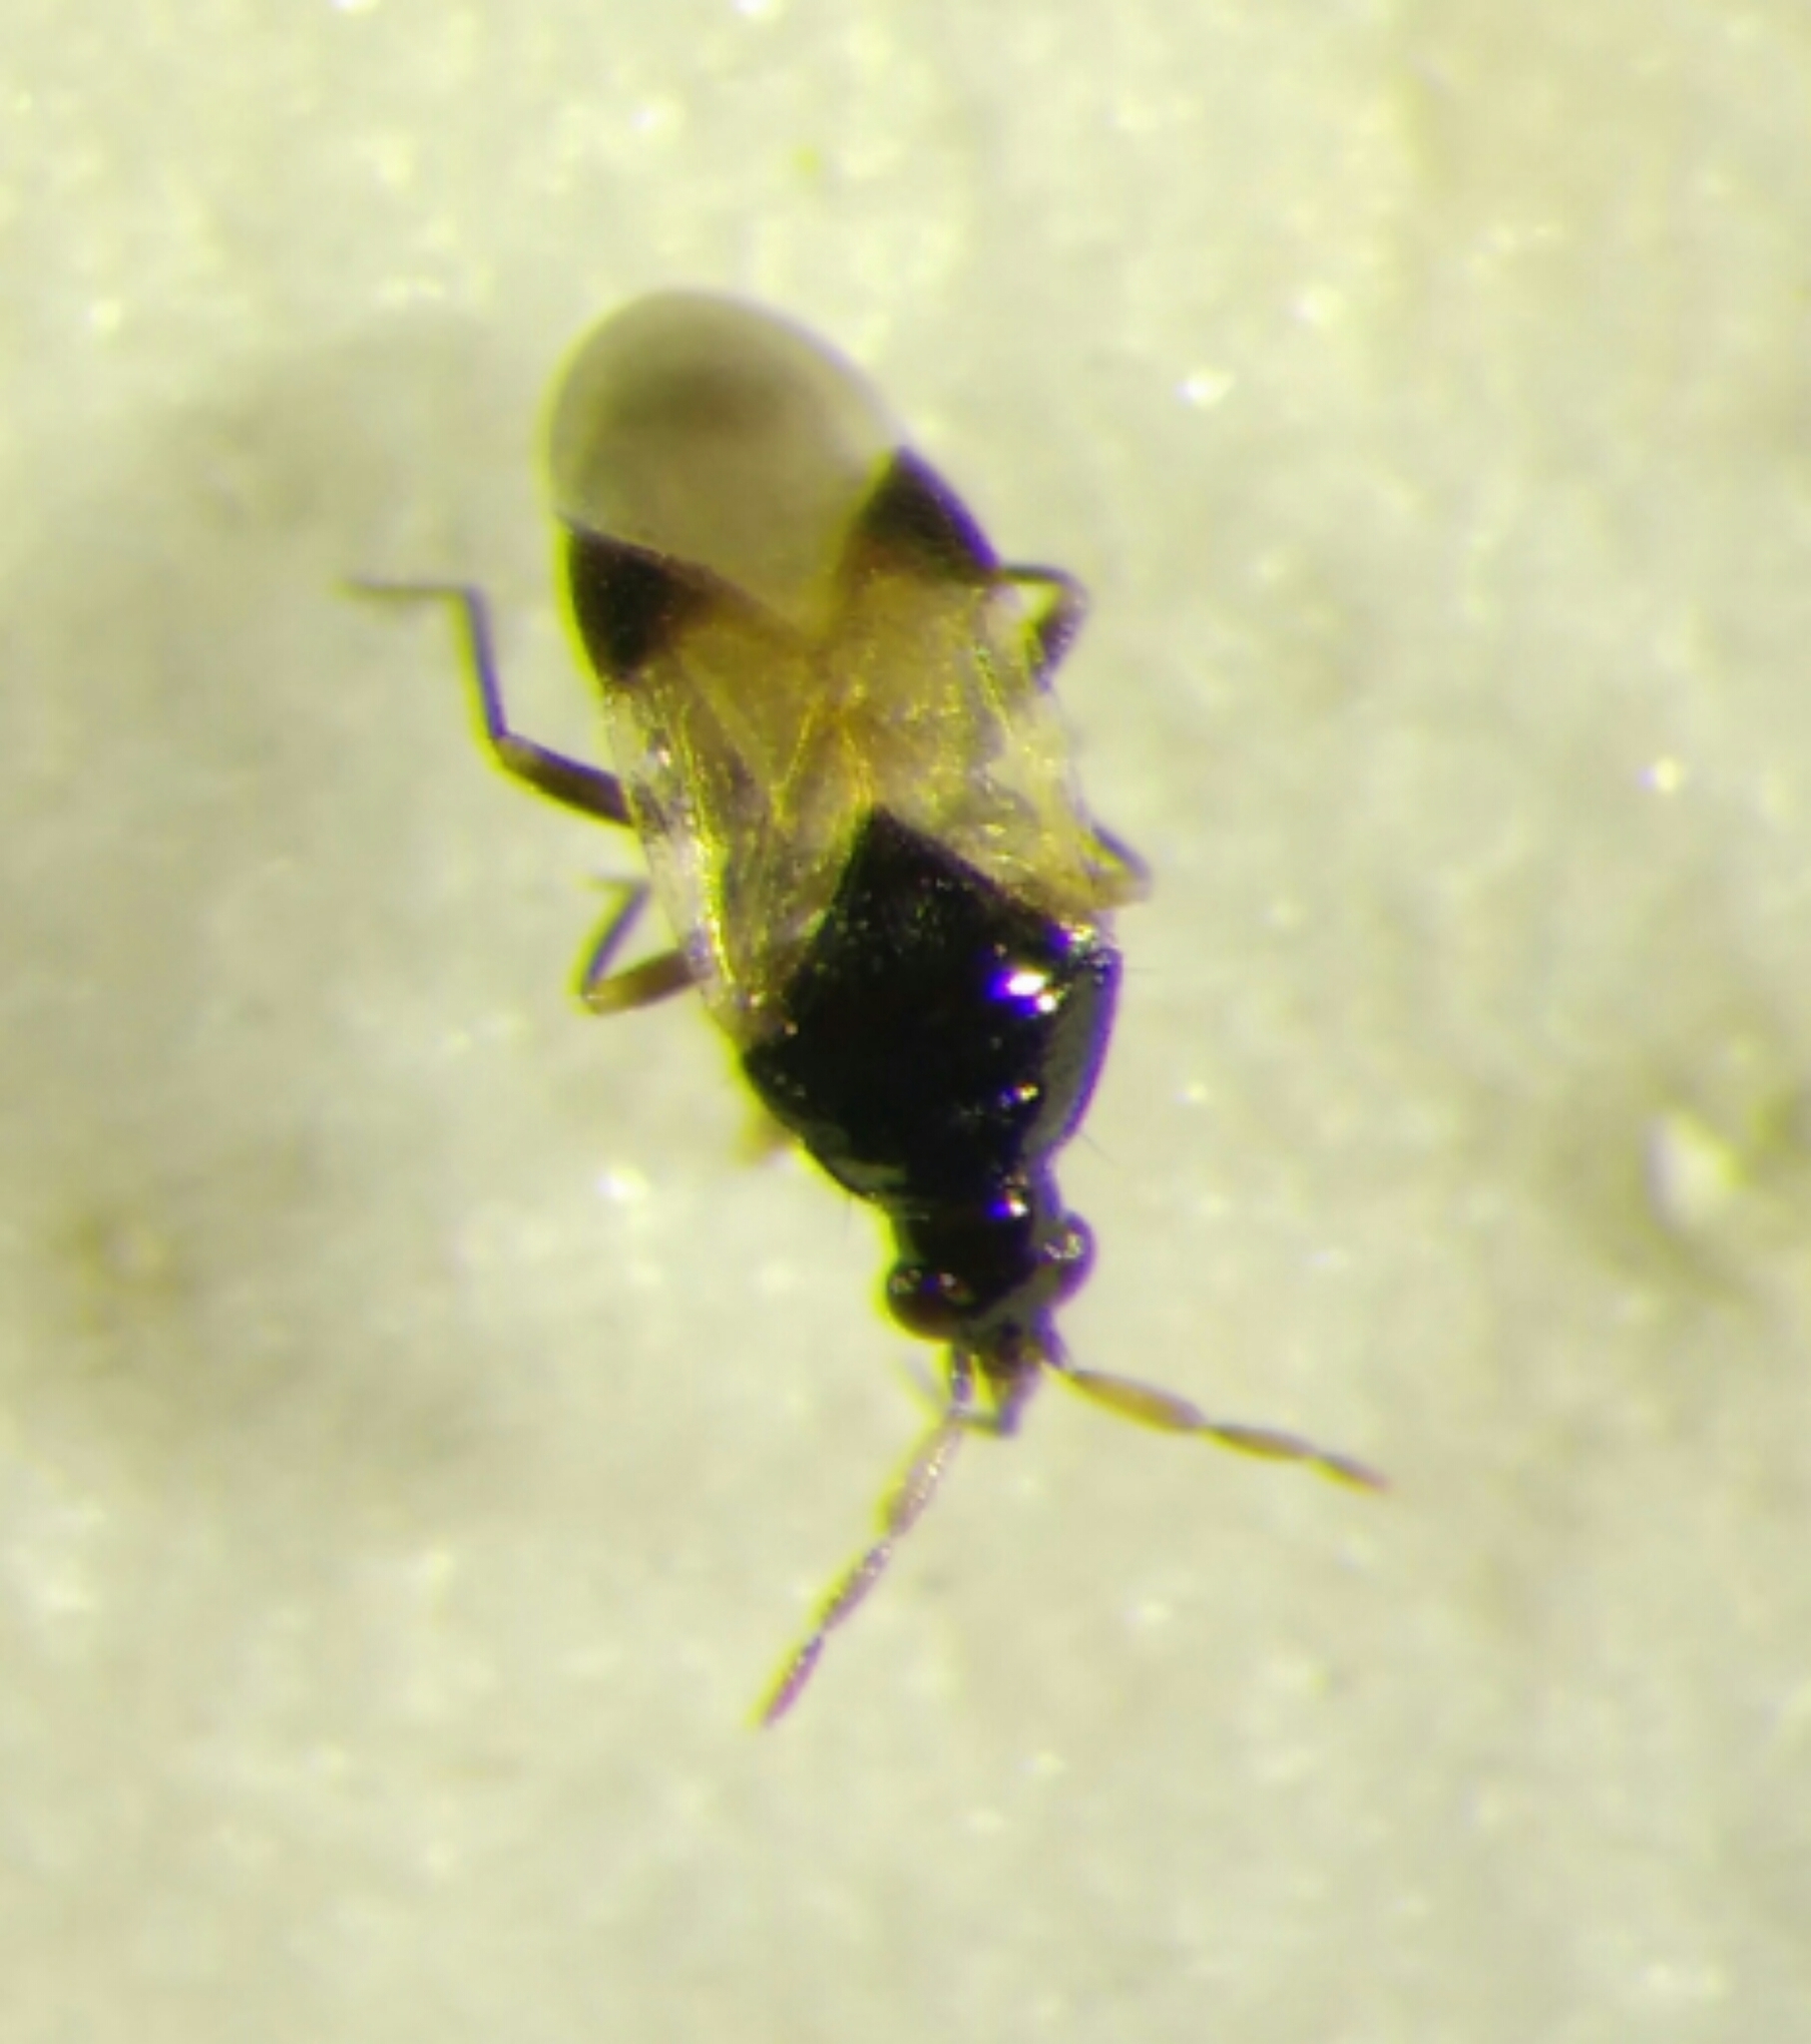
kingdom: Animalia
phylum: Arthropoda
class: Insecta
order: Hemiptera
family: Anthocoridae
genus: Orius
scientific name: Orius niger
